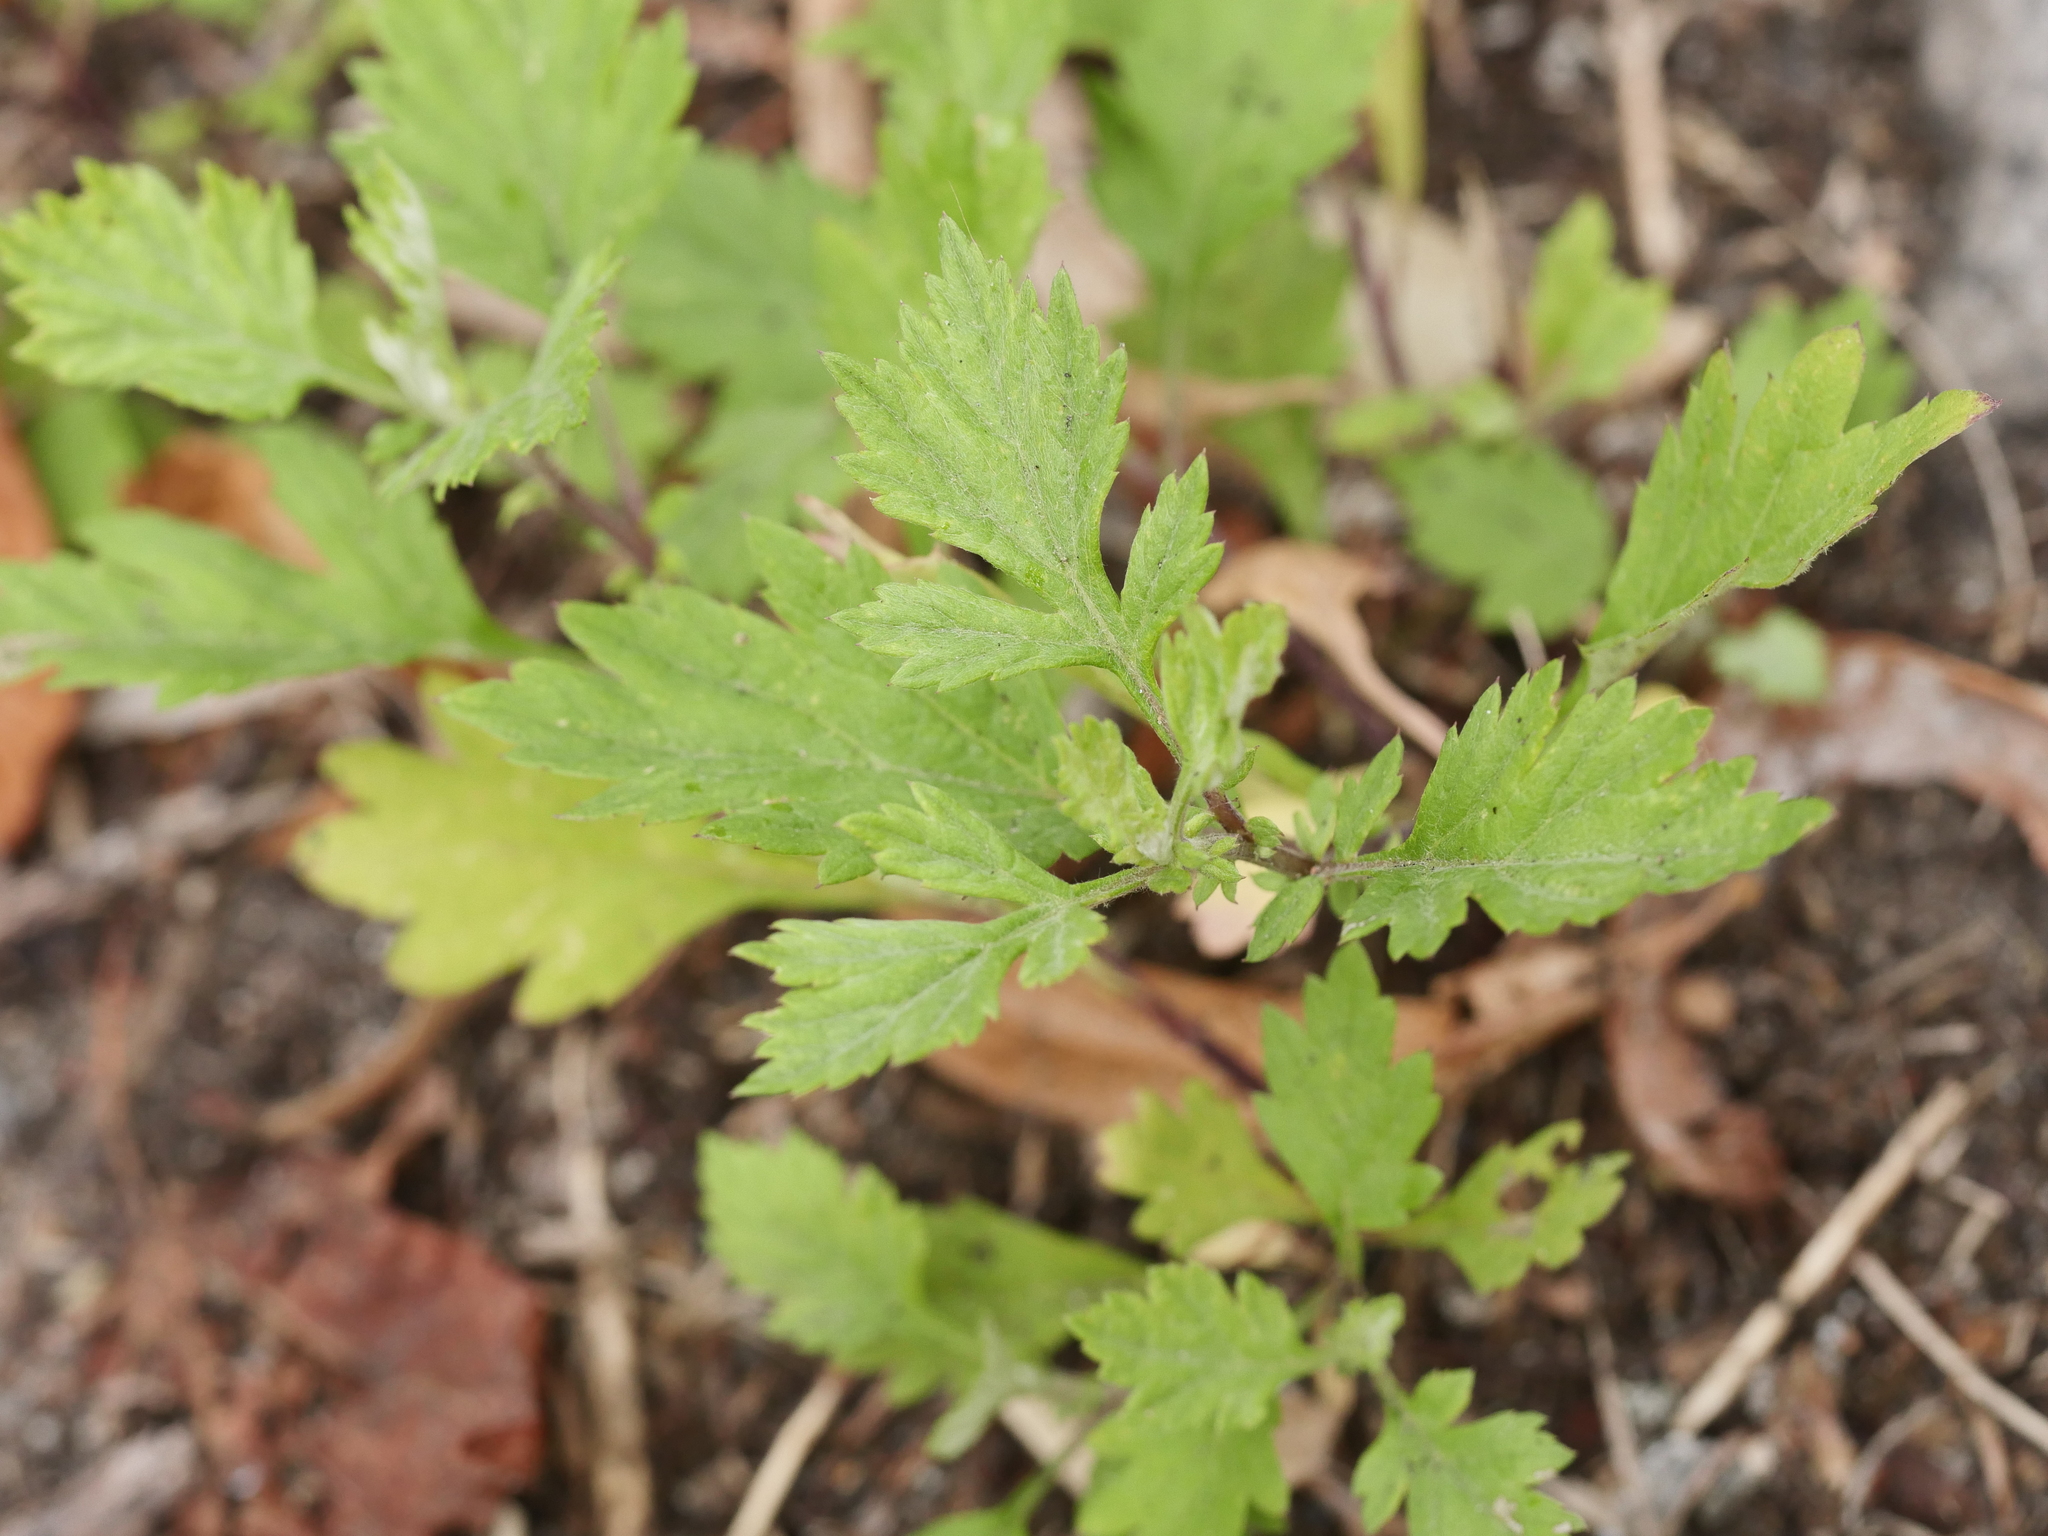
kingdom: Plantae
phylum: Tracheophyta
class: Magnoliopsida
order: Asterales
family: Asteraceae
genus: Artemisia
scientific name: Artemisia vulgaris
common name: Mugwort
